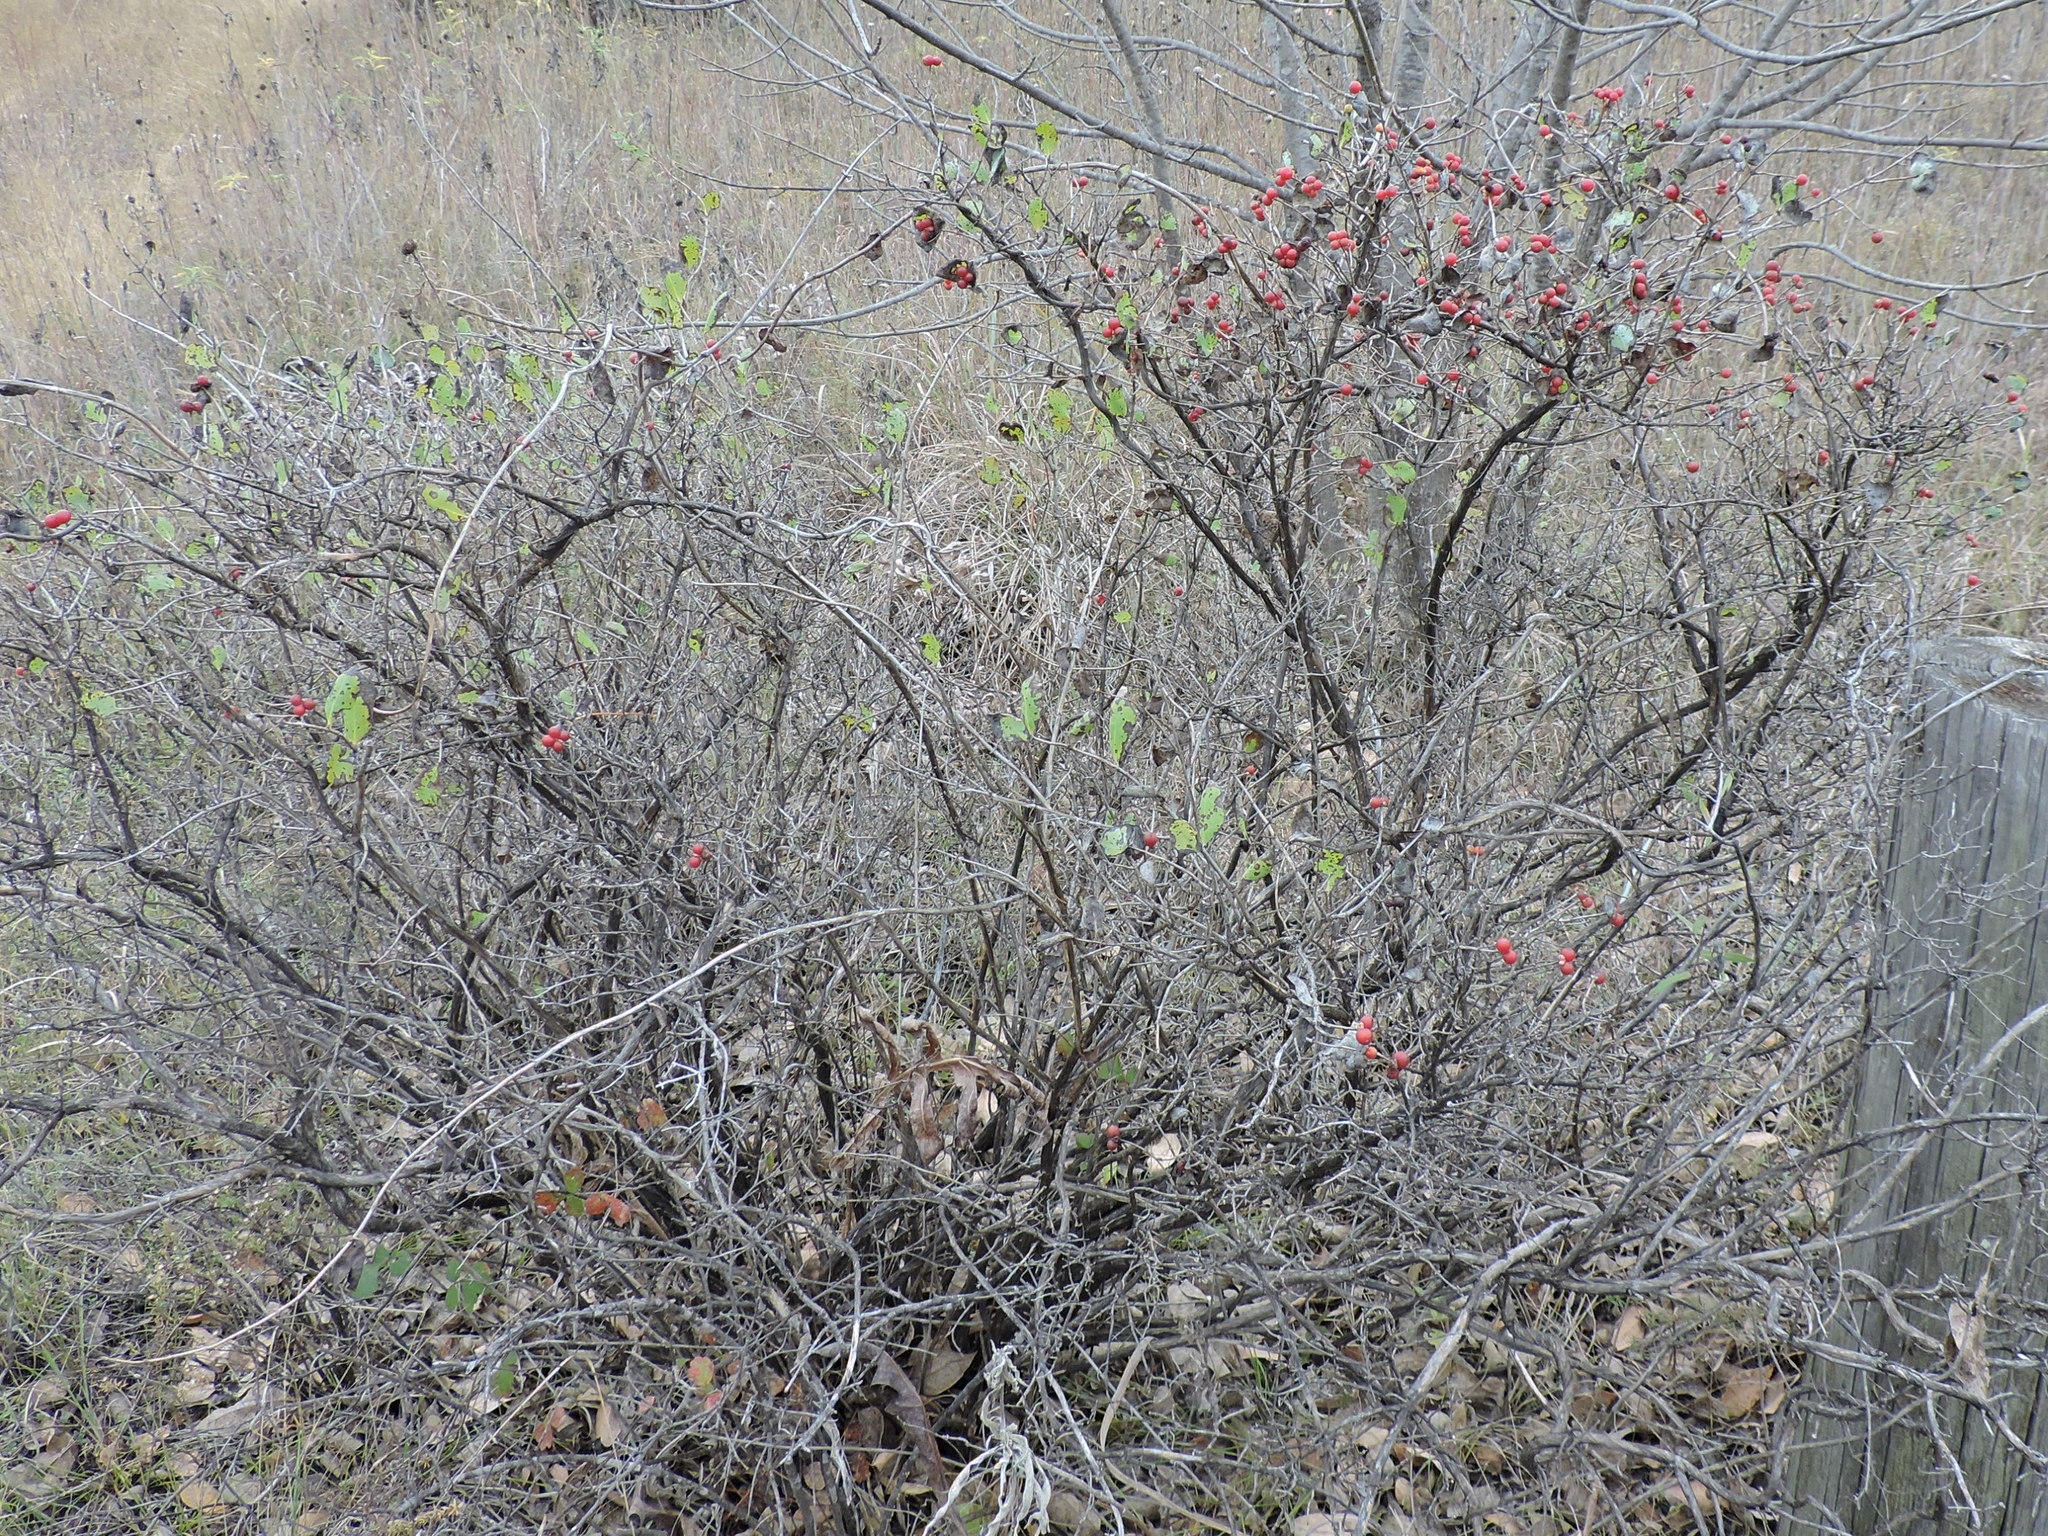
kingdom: Plantae
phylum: Tracheophyta
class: Magnoliopsida
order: Dipsacales
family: Caprifoliaceae
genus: Lonicera
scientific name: Lonicera albiflora
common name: White honeysuckle
